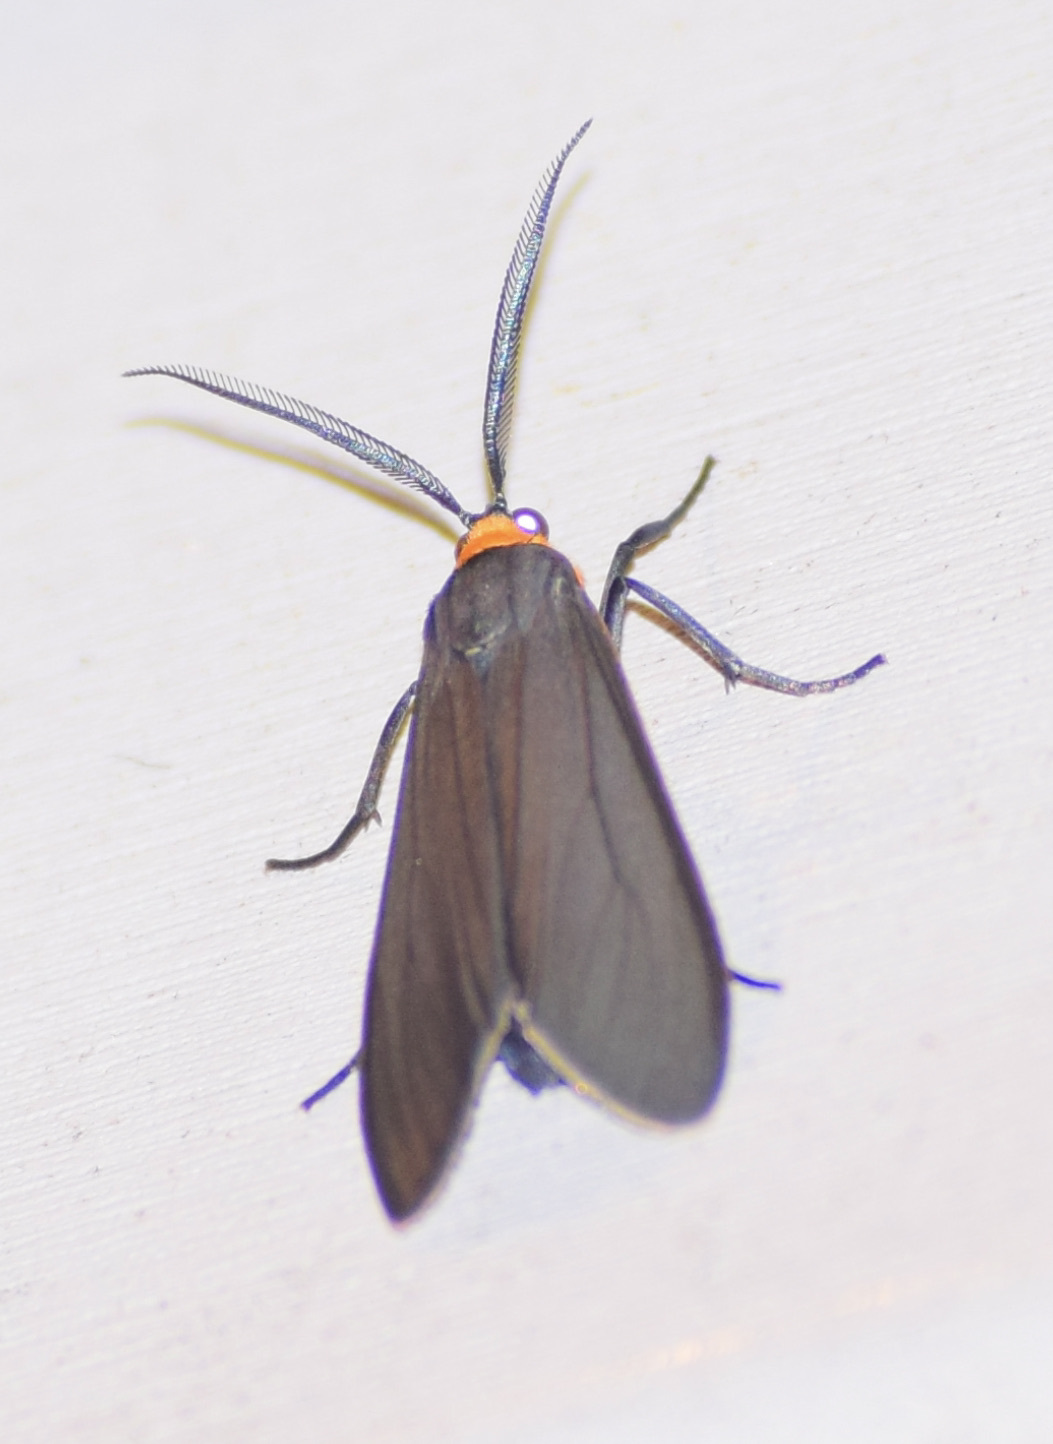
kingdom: Animalia
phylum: Arthropoda
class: Insecta
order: Lepidoptera
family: Erebidae
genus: Ctenucha
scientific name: Ctenucha virginica
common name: Virginia ctenucha moth
